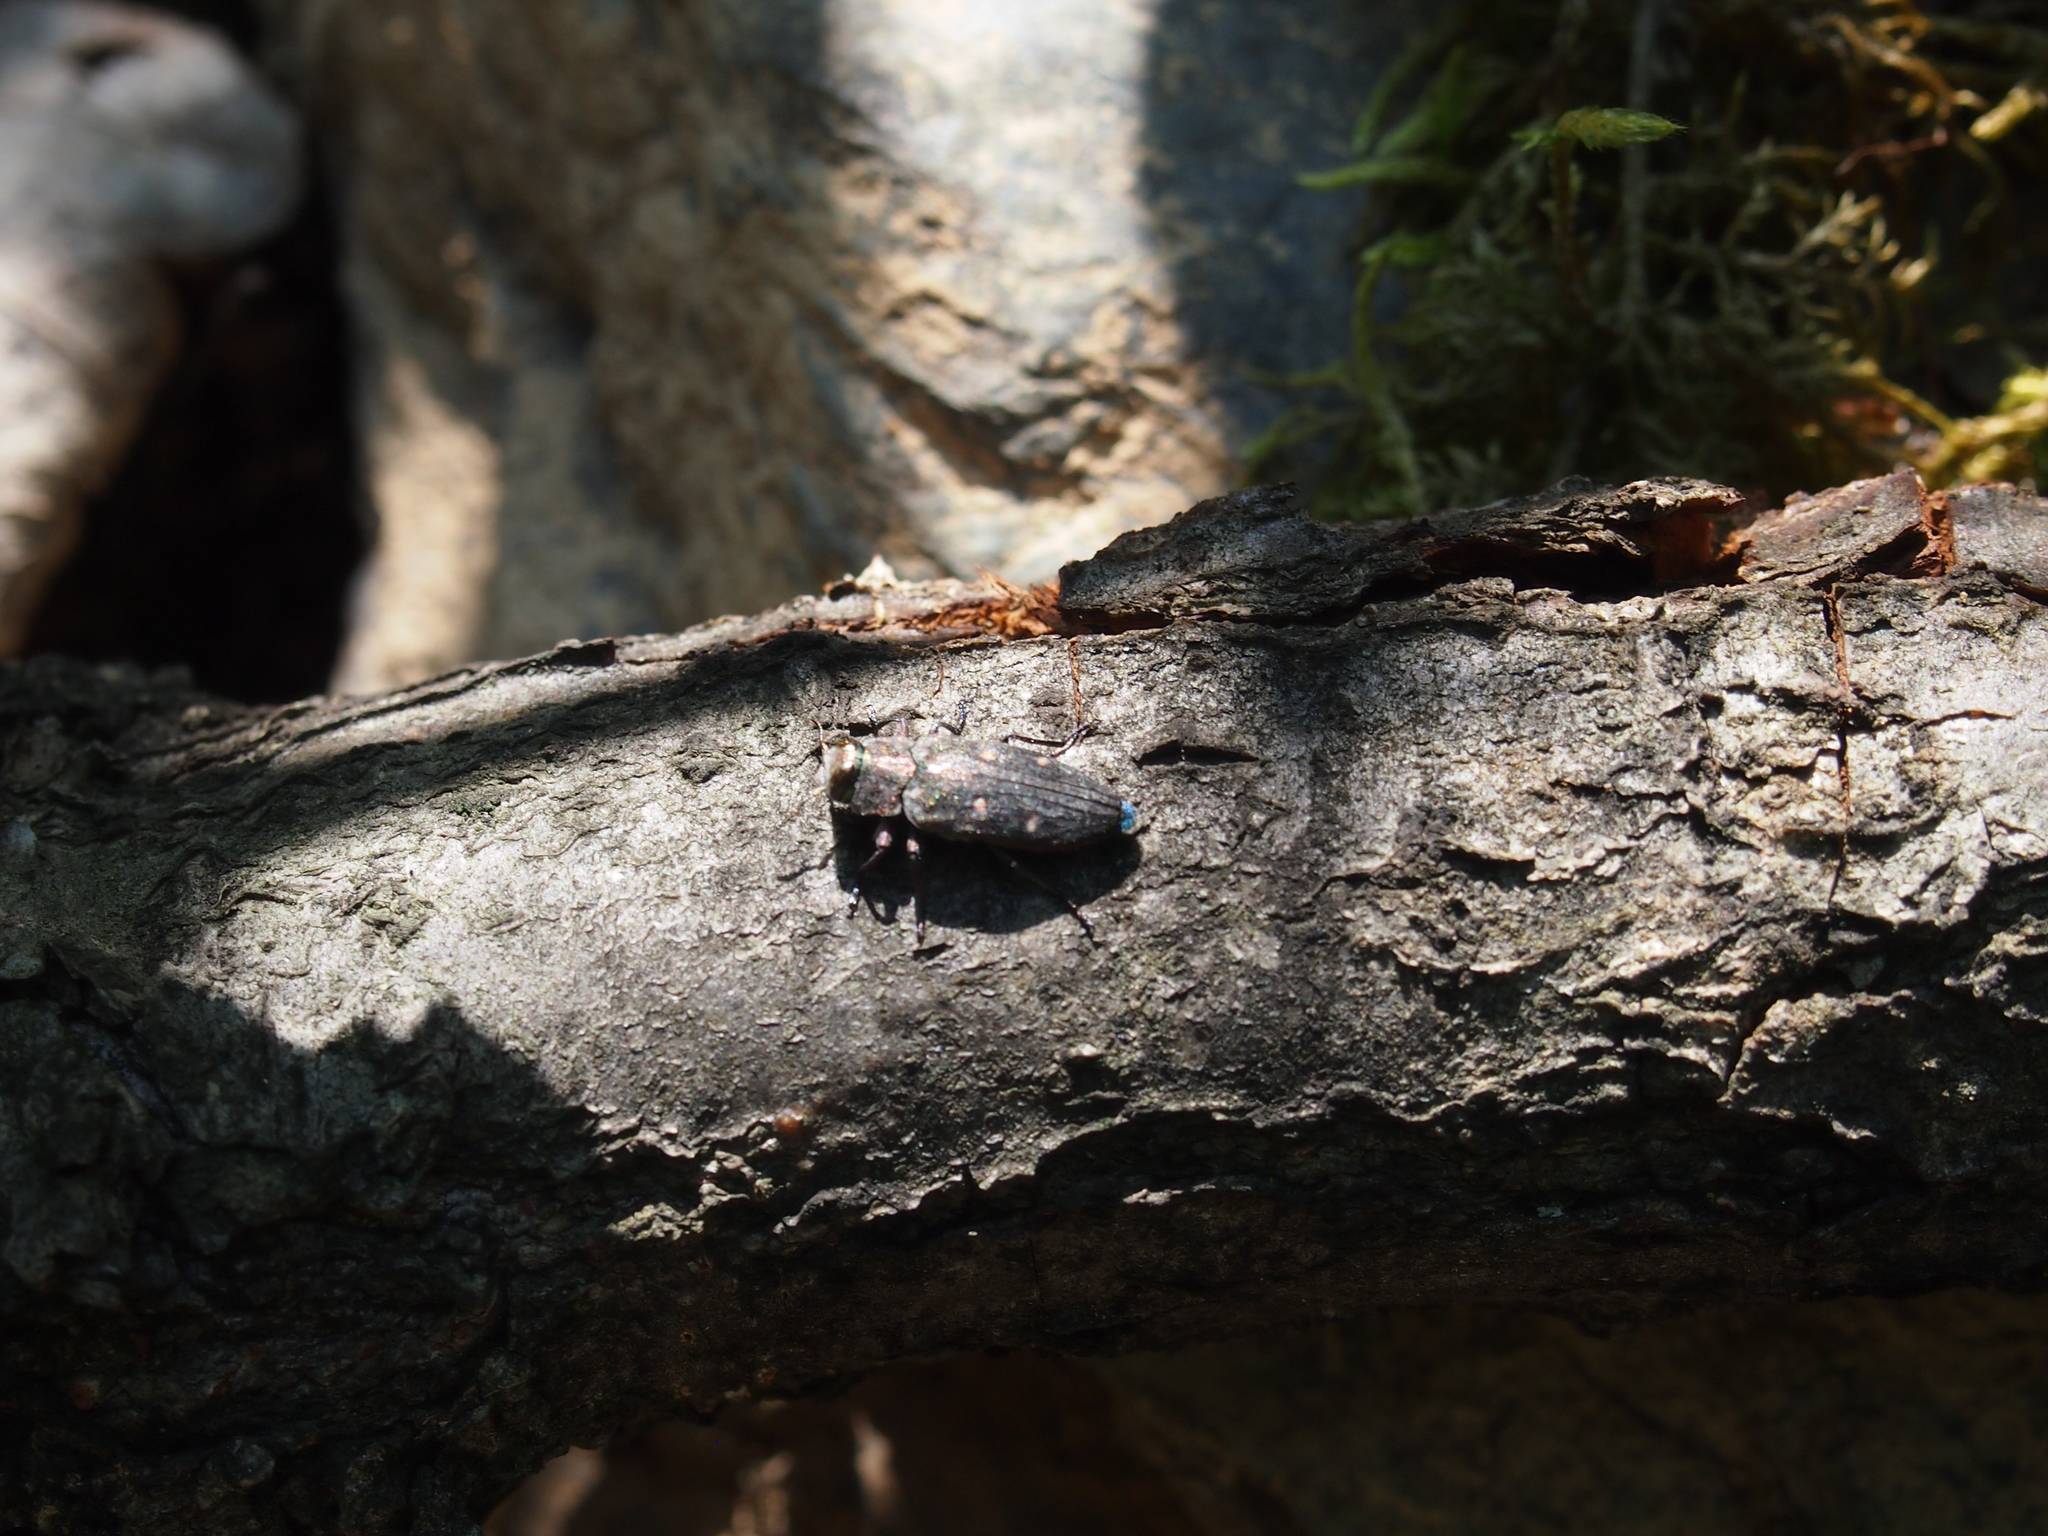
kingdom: Animalia
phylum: Arthropoda
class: Insecta
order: Coleoptera
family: Buprestidae
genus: Chrysobothris
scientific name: Chrysobothris affinis
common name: Beetle
